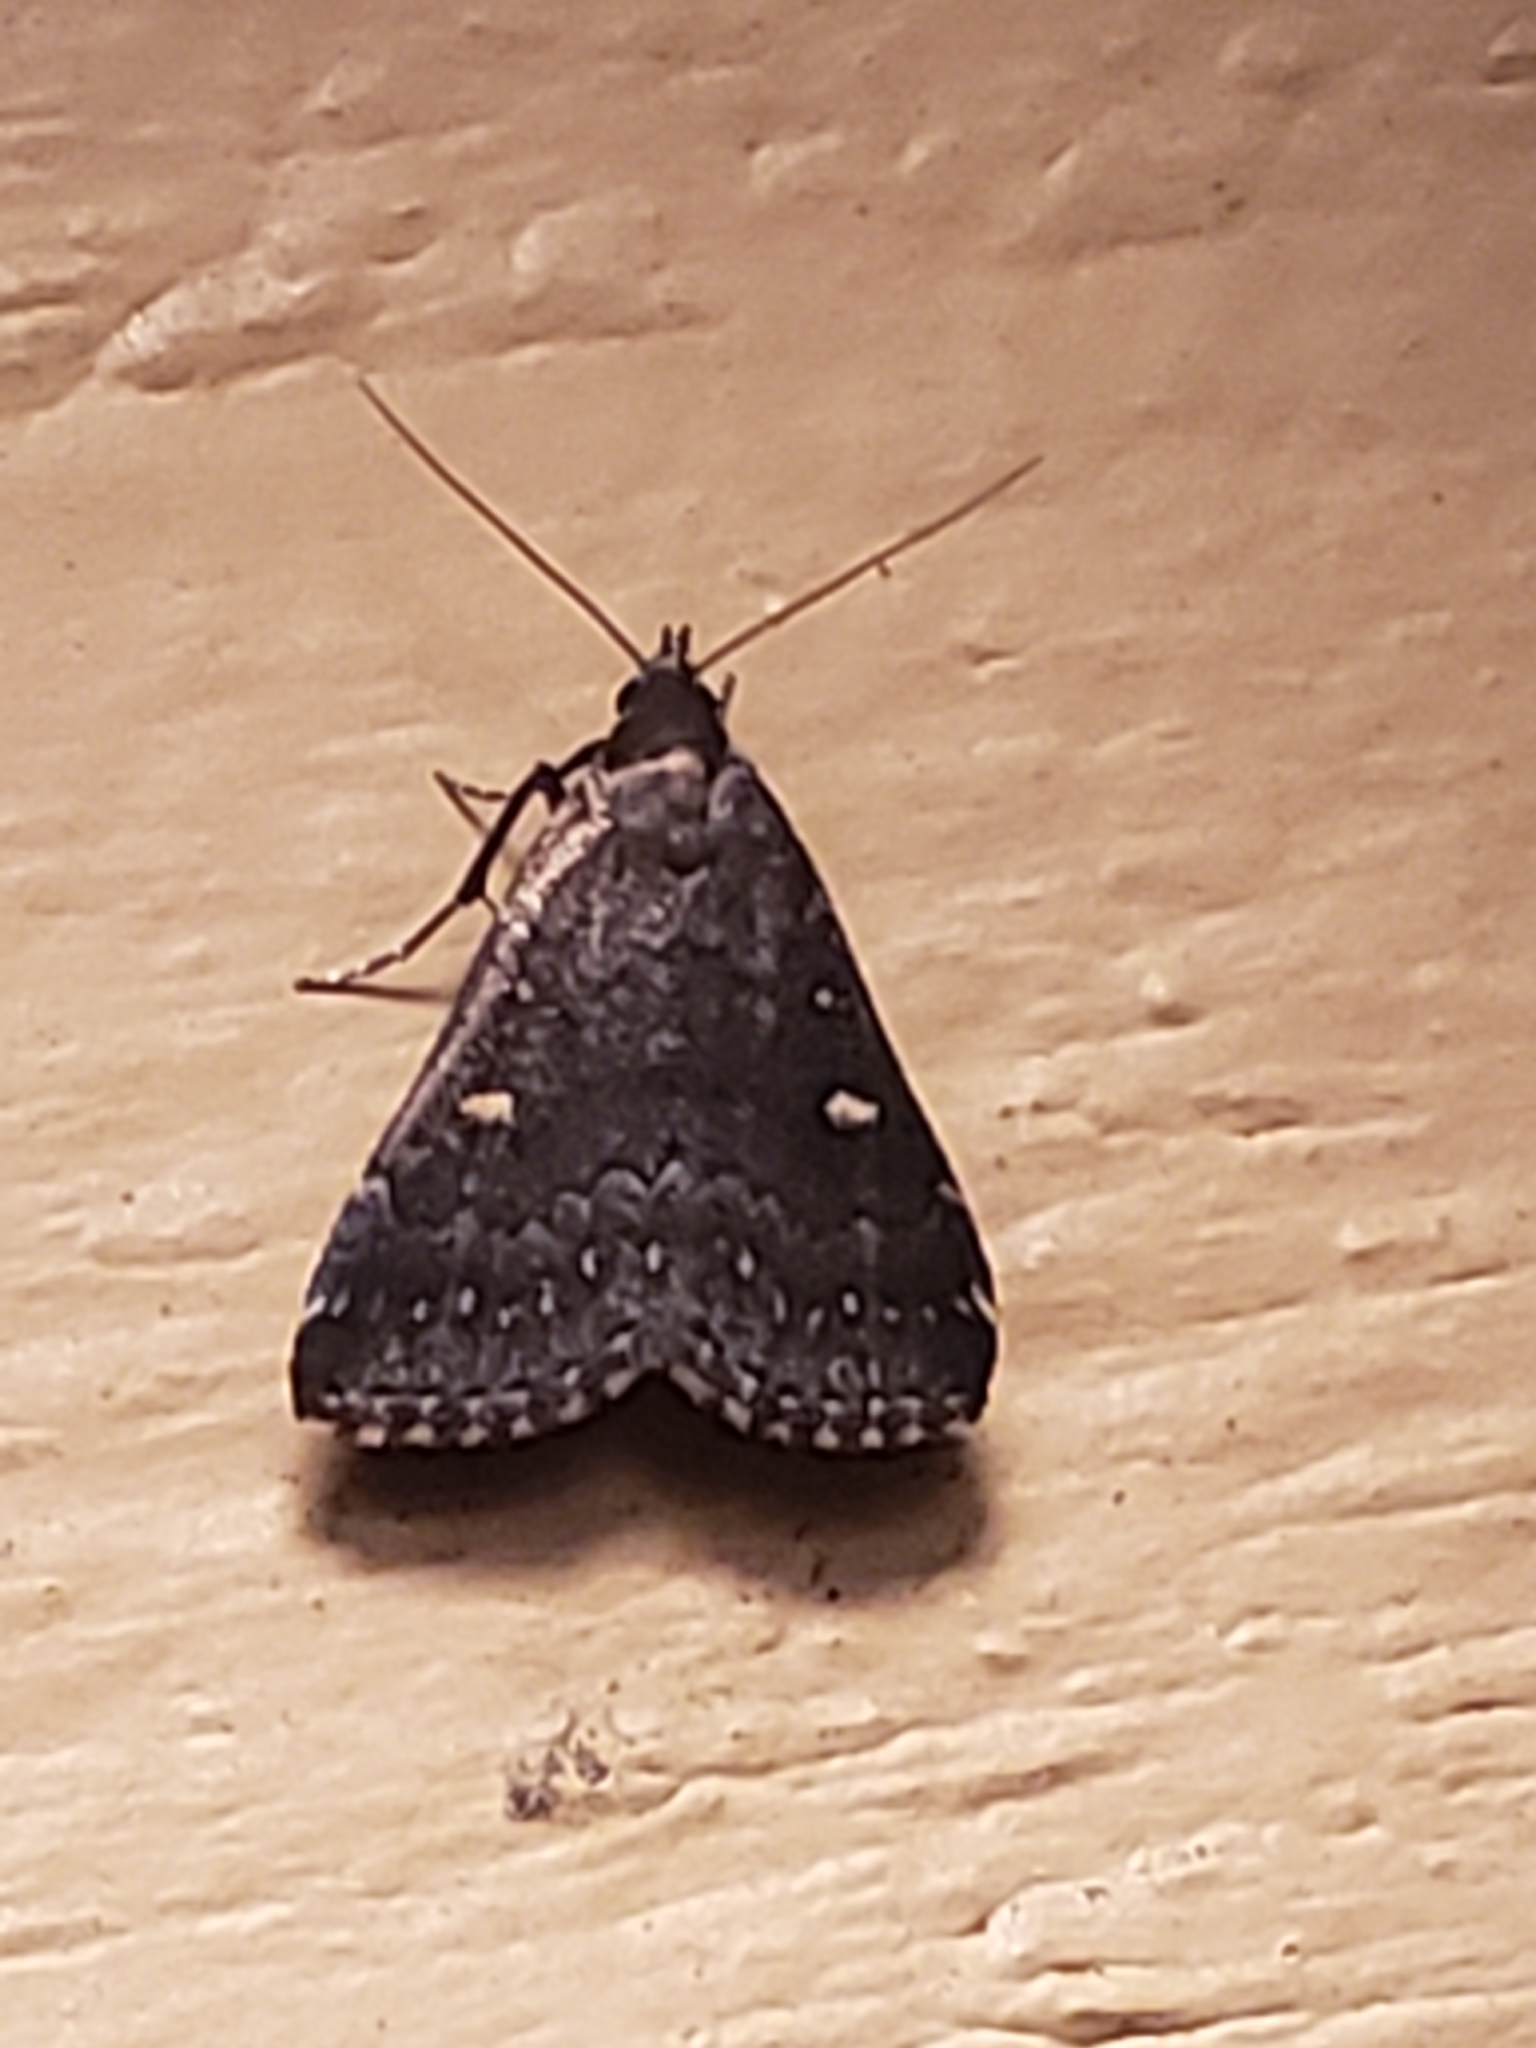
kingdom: Animalia
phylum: Arthropoda
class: Insecta
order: Lepidoptera
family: Erebidae
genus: Tetanolita
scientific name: Tetanolita mynesalis
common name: Smoky tetanolita moth
